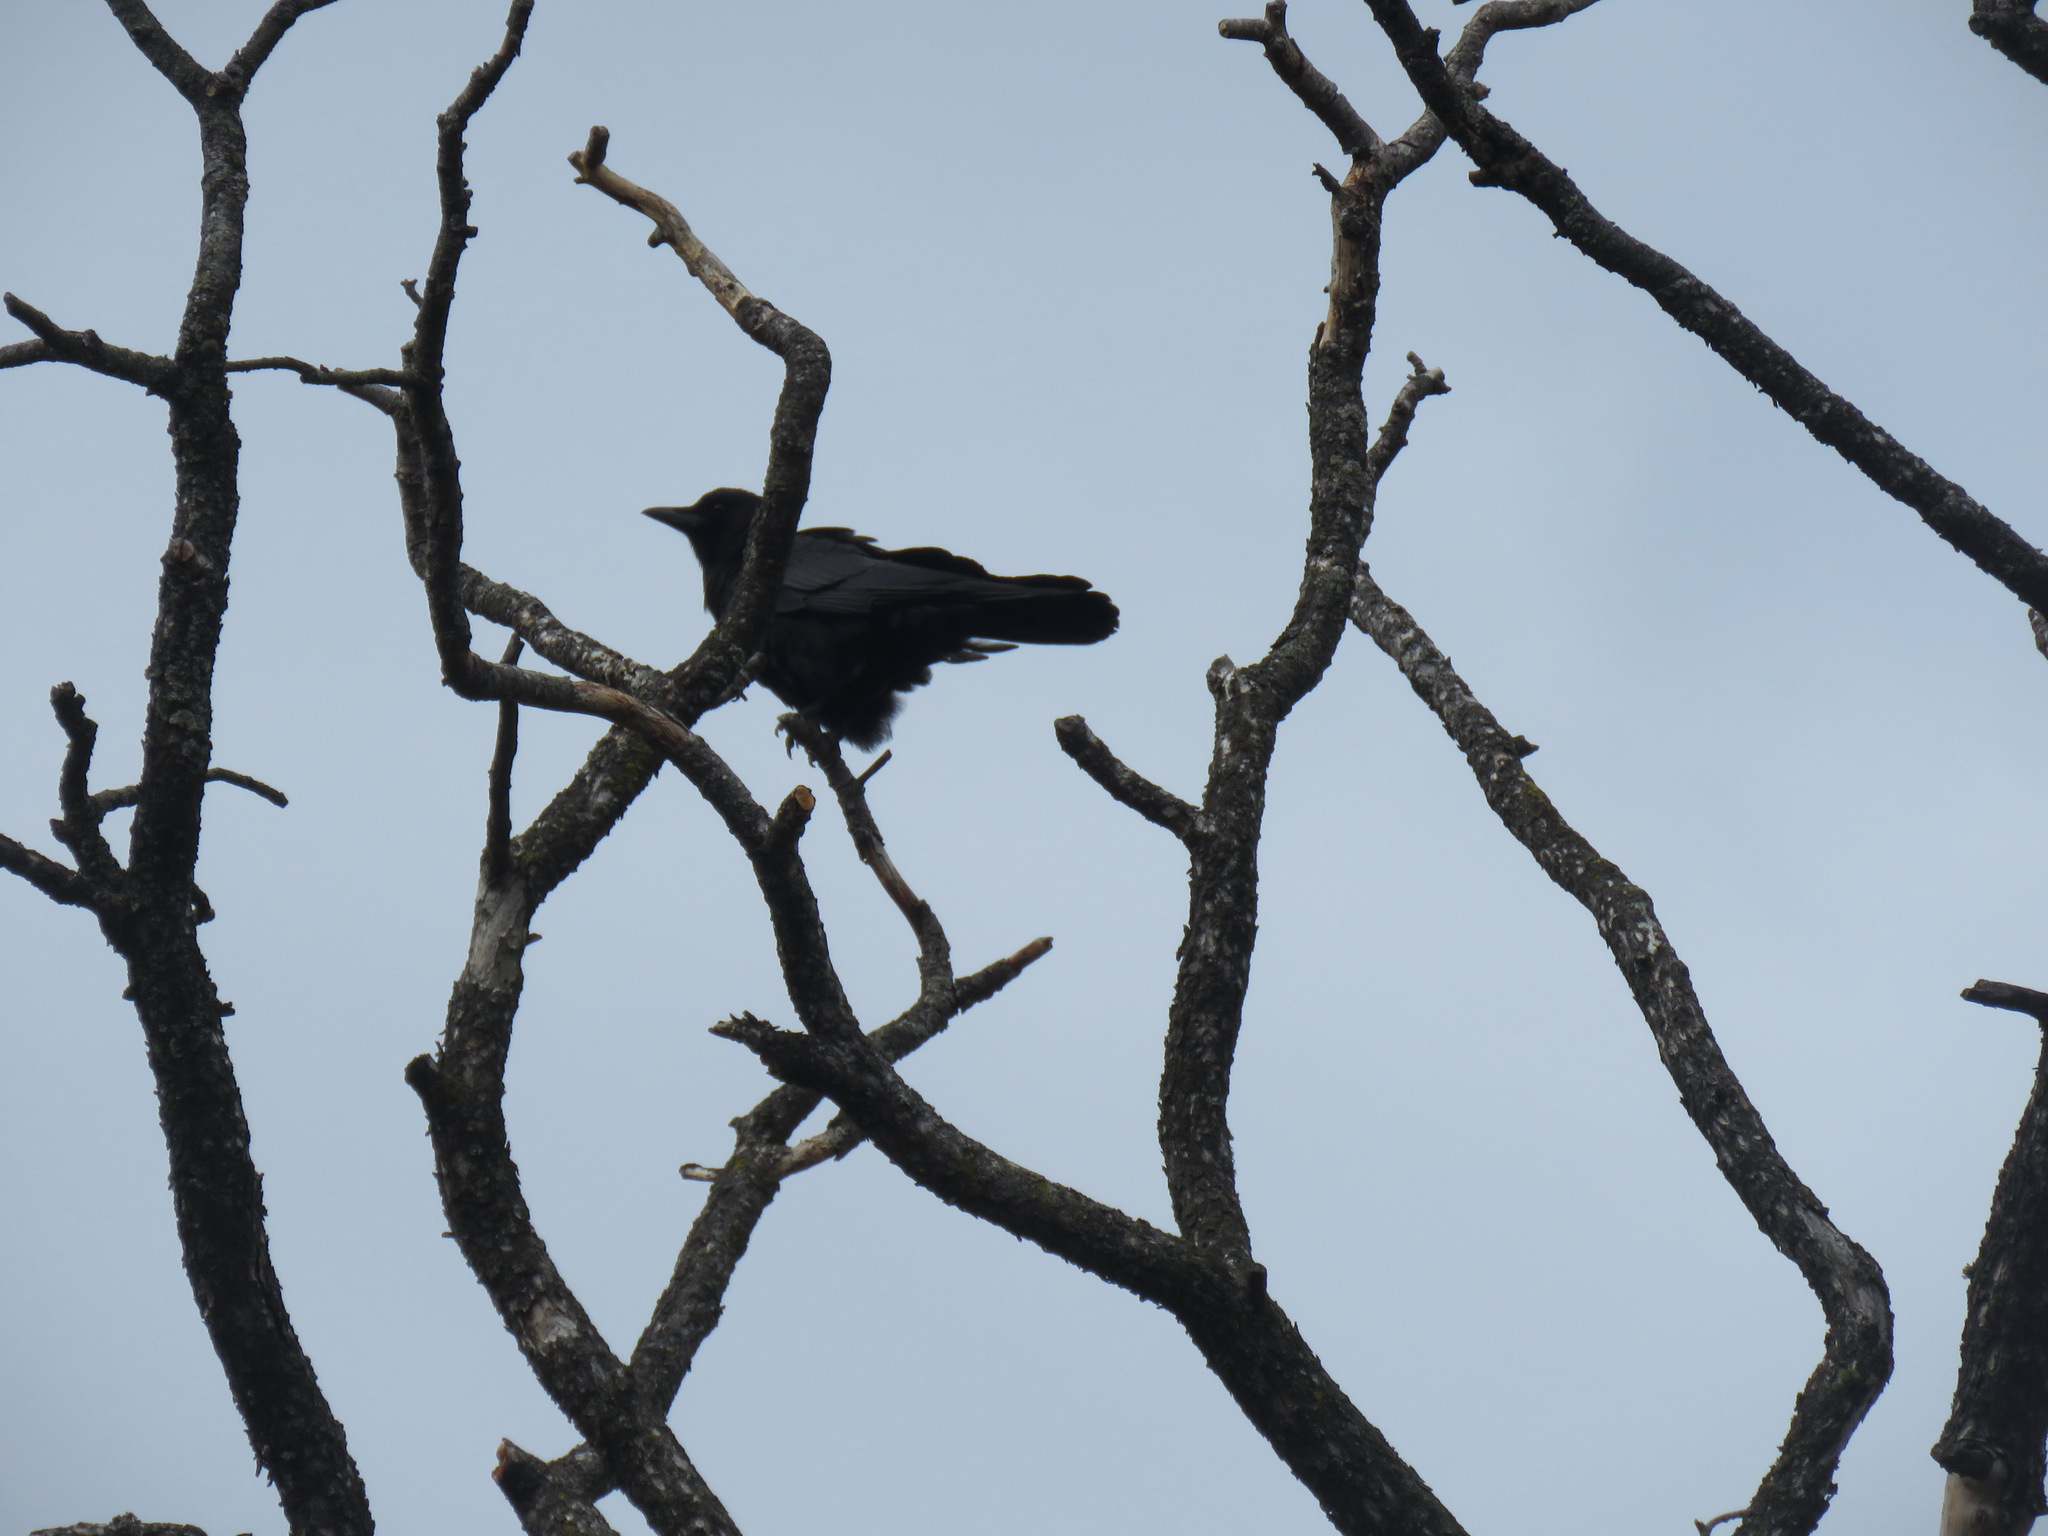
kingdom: Animalia
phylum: Chordata
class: Aves
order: Passeriformes
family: Corvidae
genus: Corvus
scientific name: Corvus brachyrhynchos
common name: American crow
